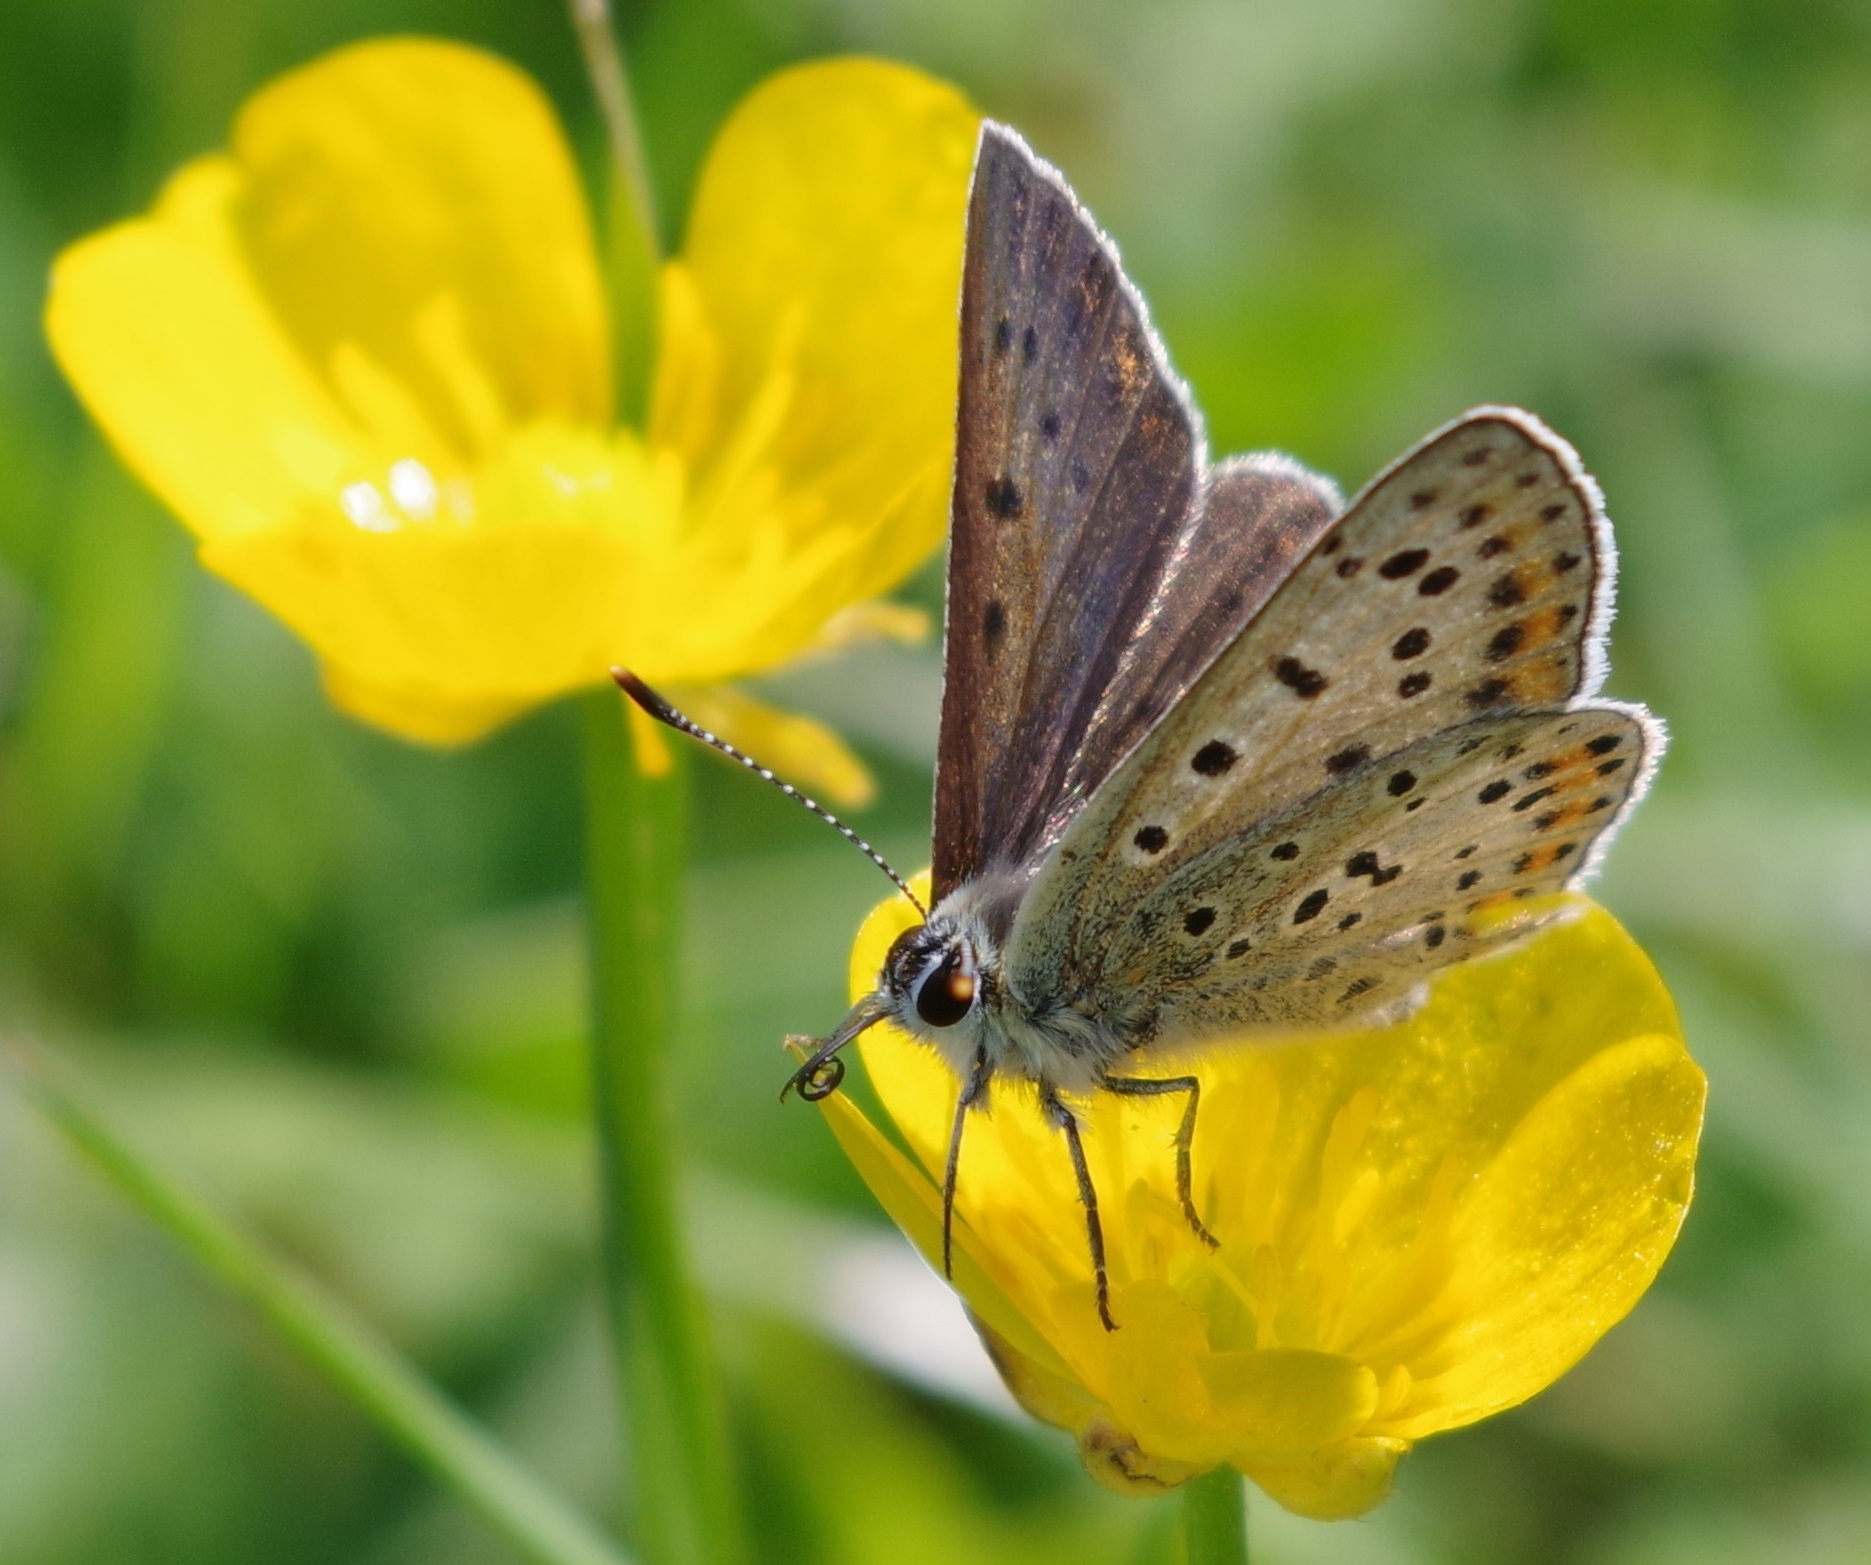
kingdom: Animalia
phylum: Arthropoda
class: Insecta
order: Lepidoptera
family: Lycaenidae
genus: Loweia
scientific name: Loweia tityrus
